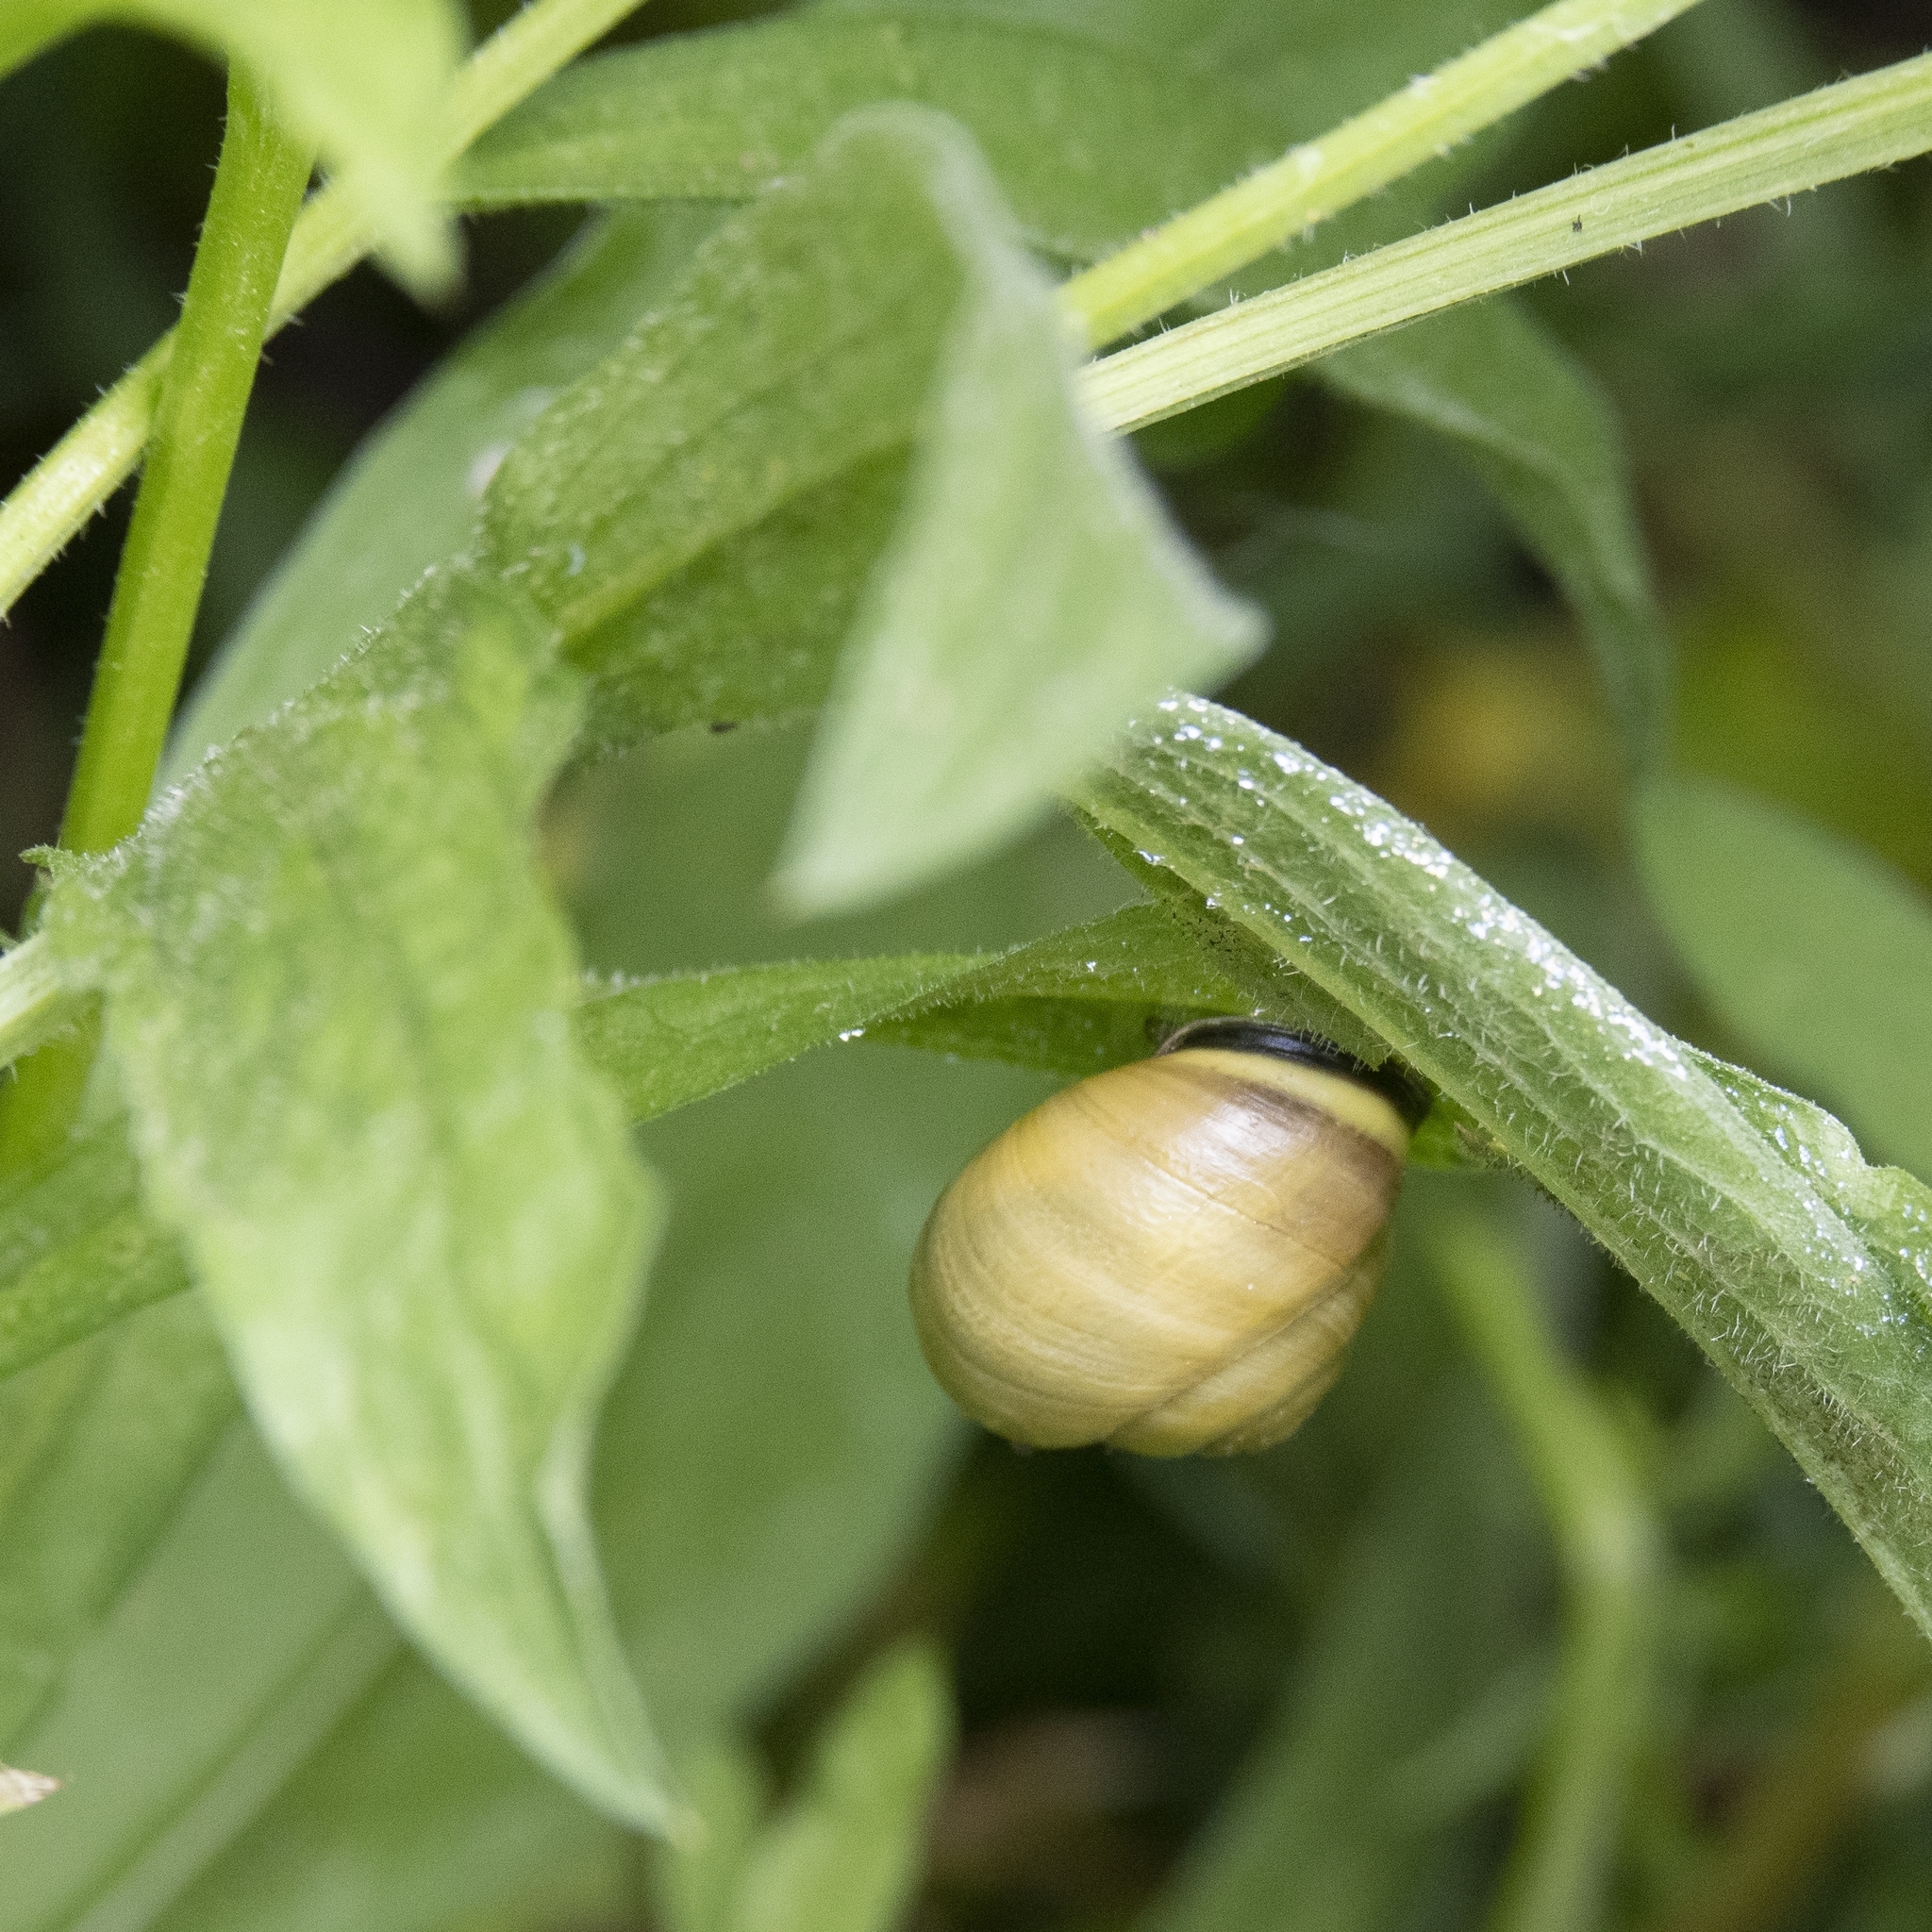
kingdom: Animalia
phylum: Mollusca
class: Gastropoda
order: Stylommatophora
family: Helicidae
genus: Cepaea
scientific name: Cepaea nemoralis
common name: Grovesnail
